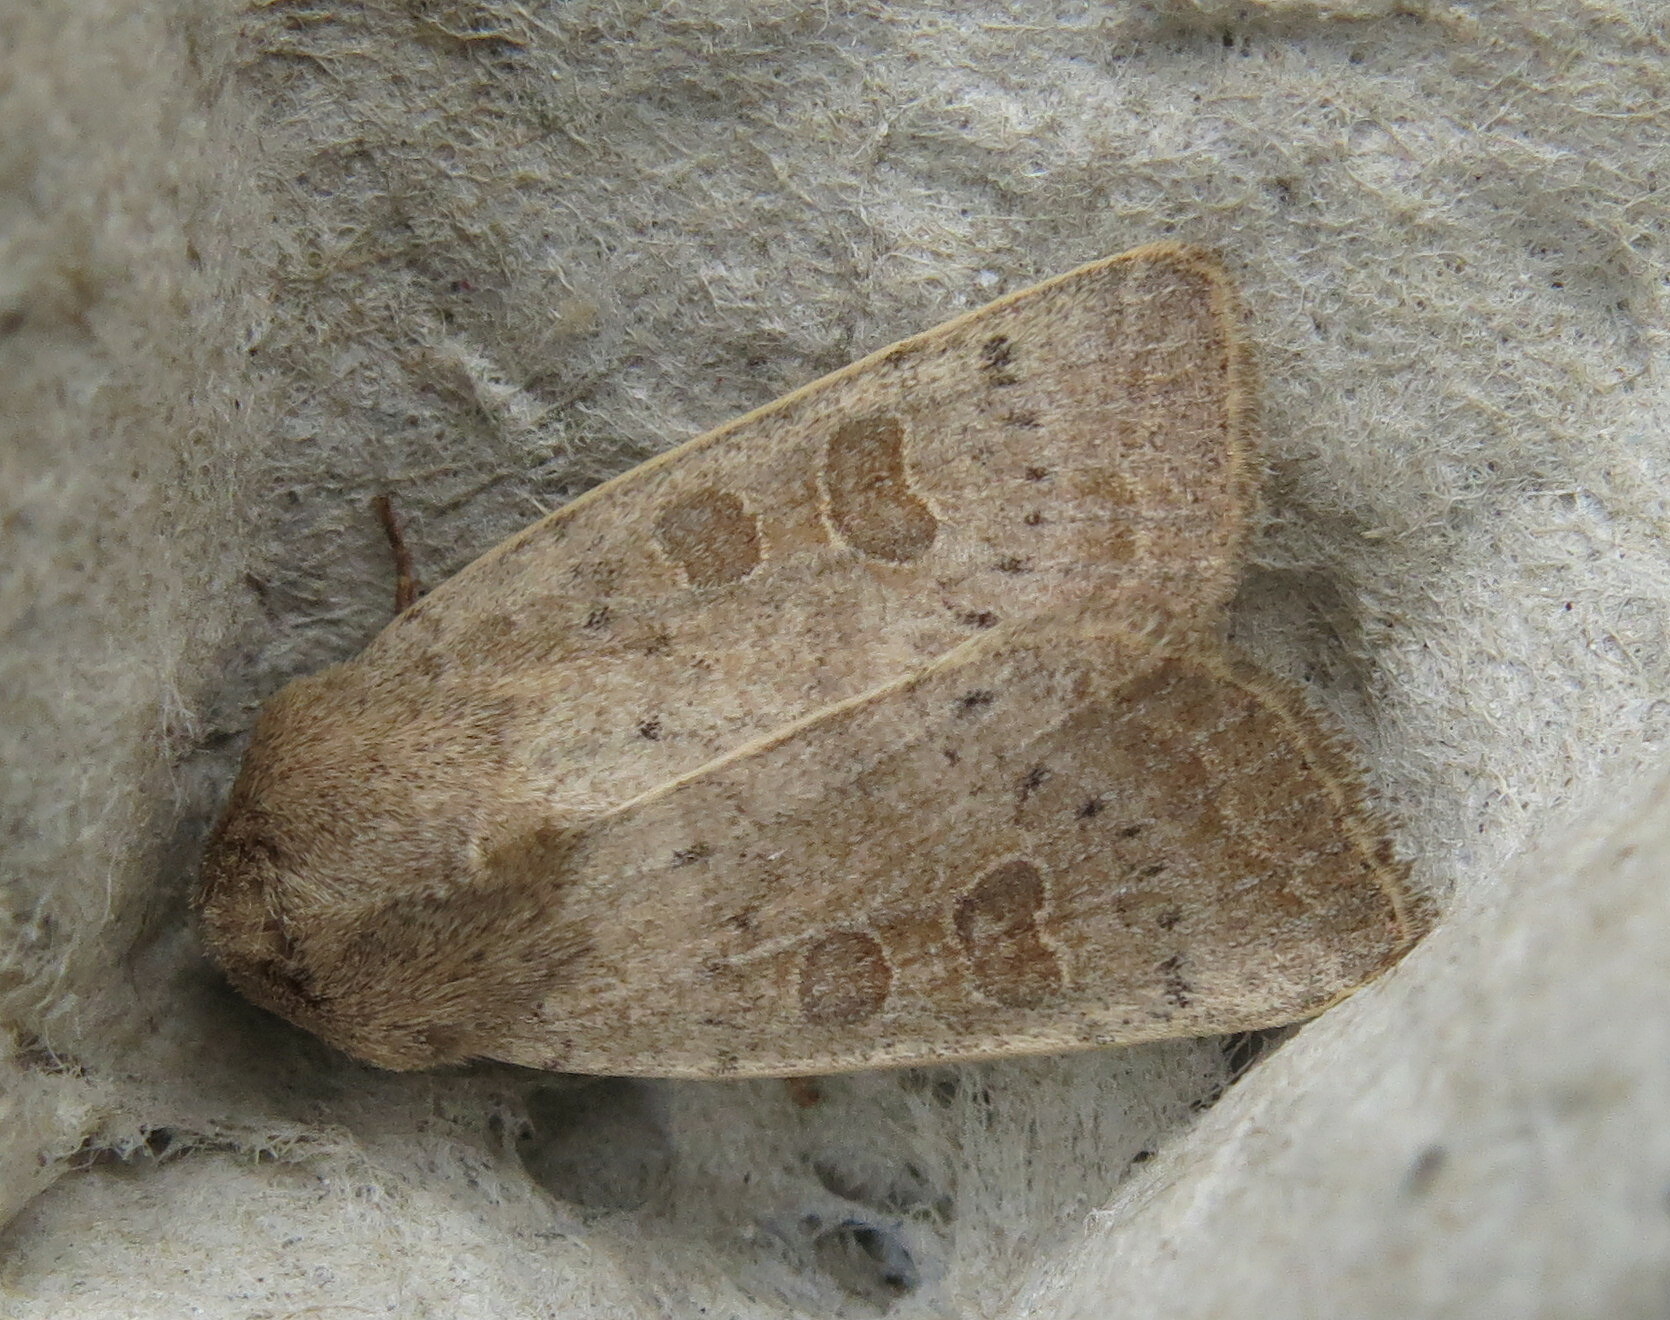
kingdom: Animalia
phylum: Arthropoda
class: Insecta
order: Lepidoptera
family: Noctuidae
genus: Hoplodrina
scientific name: Hoplodrina ambigua
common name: Vine's rustic
